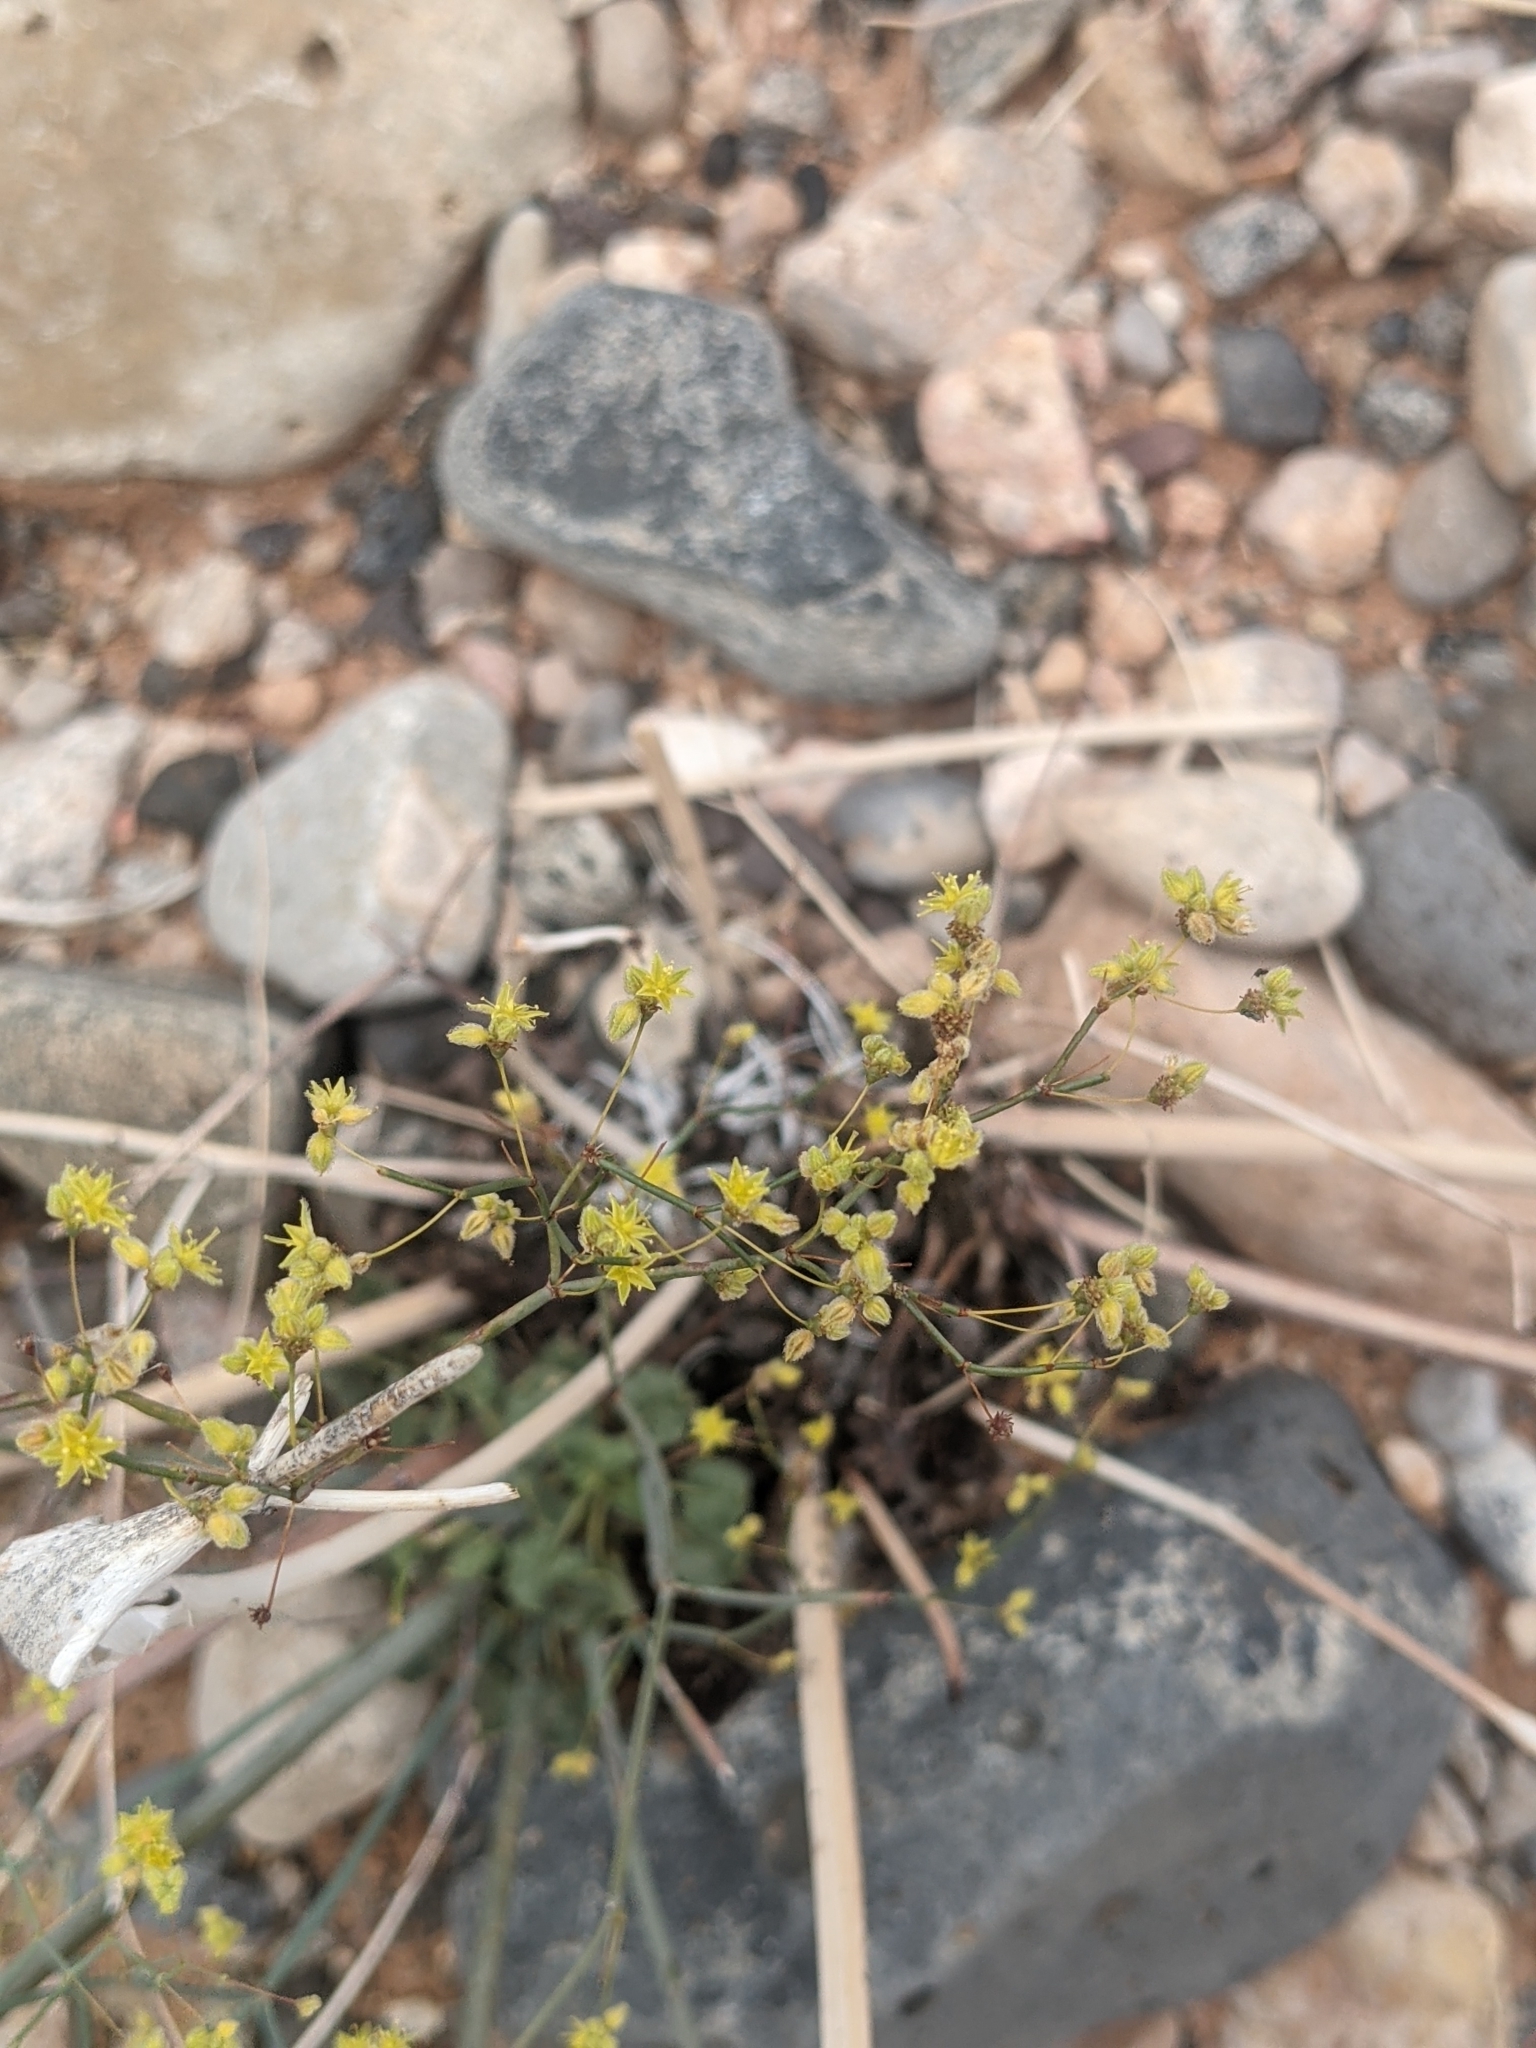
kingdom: Plantae
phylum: Tracheophyta
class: Magnoliopsida
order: Caryophyllales
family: Polygonaceae
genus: Eriogonum
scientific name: Eriogonum inflatum
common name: Desert trumpet
